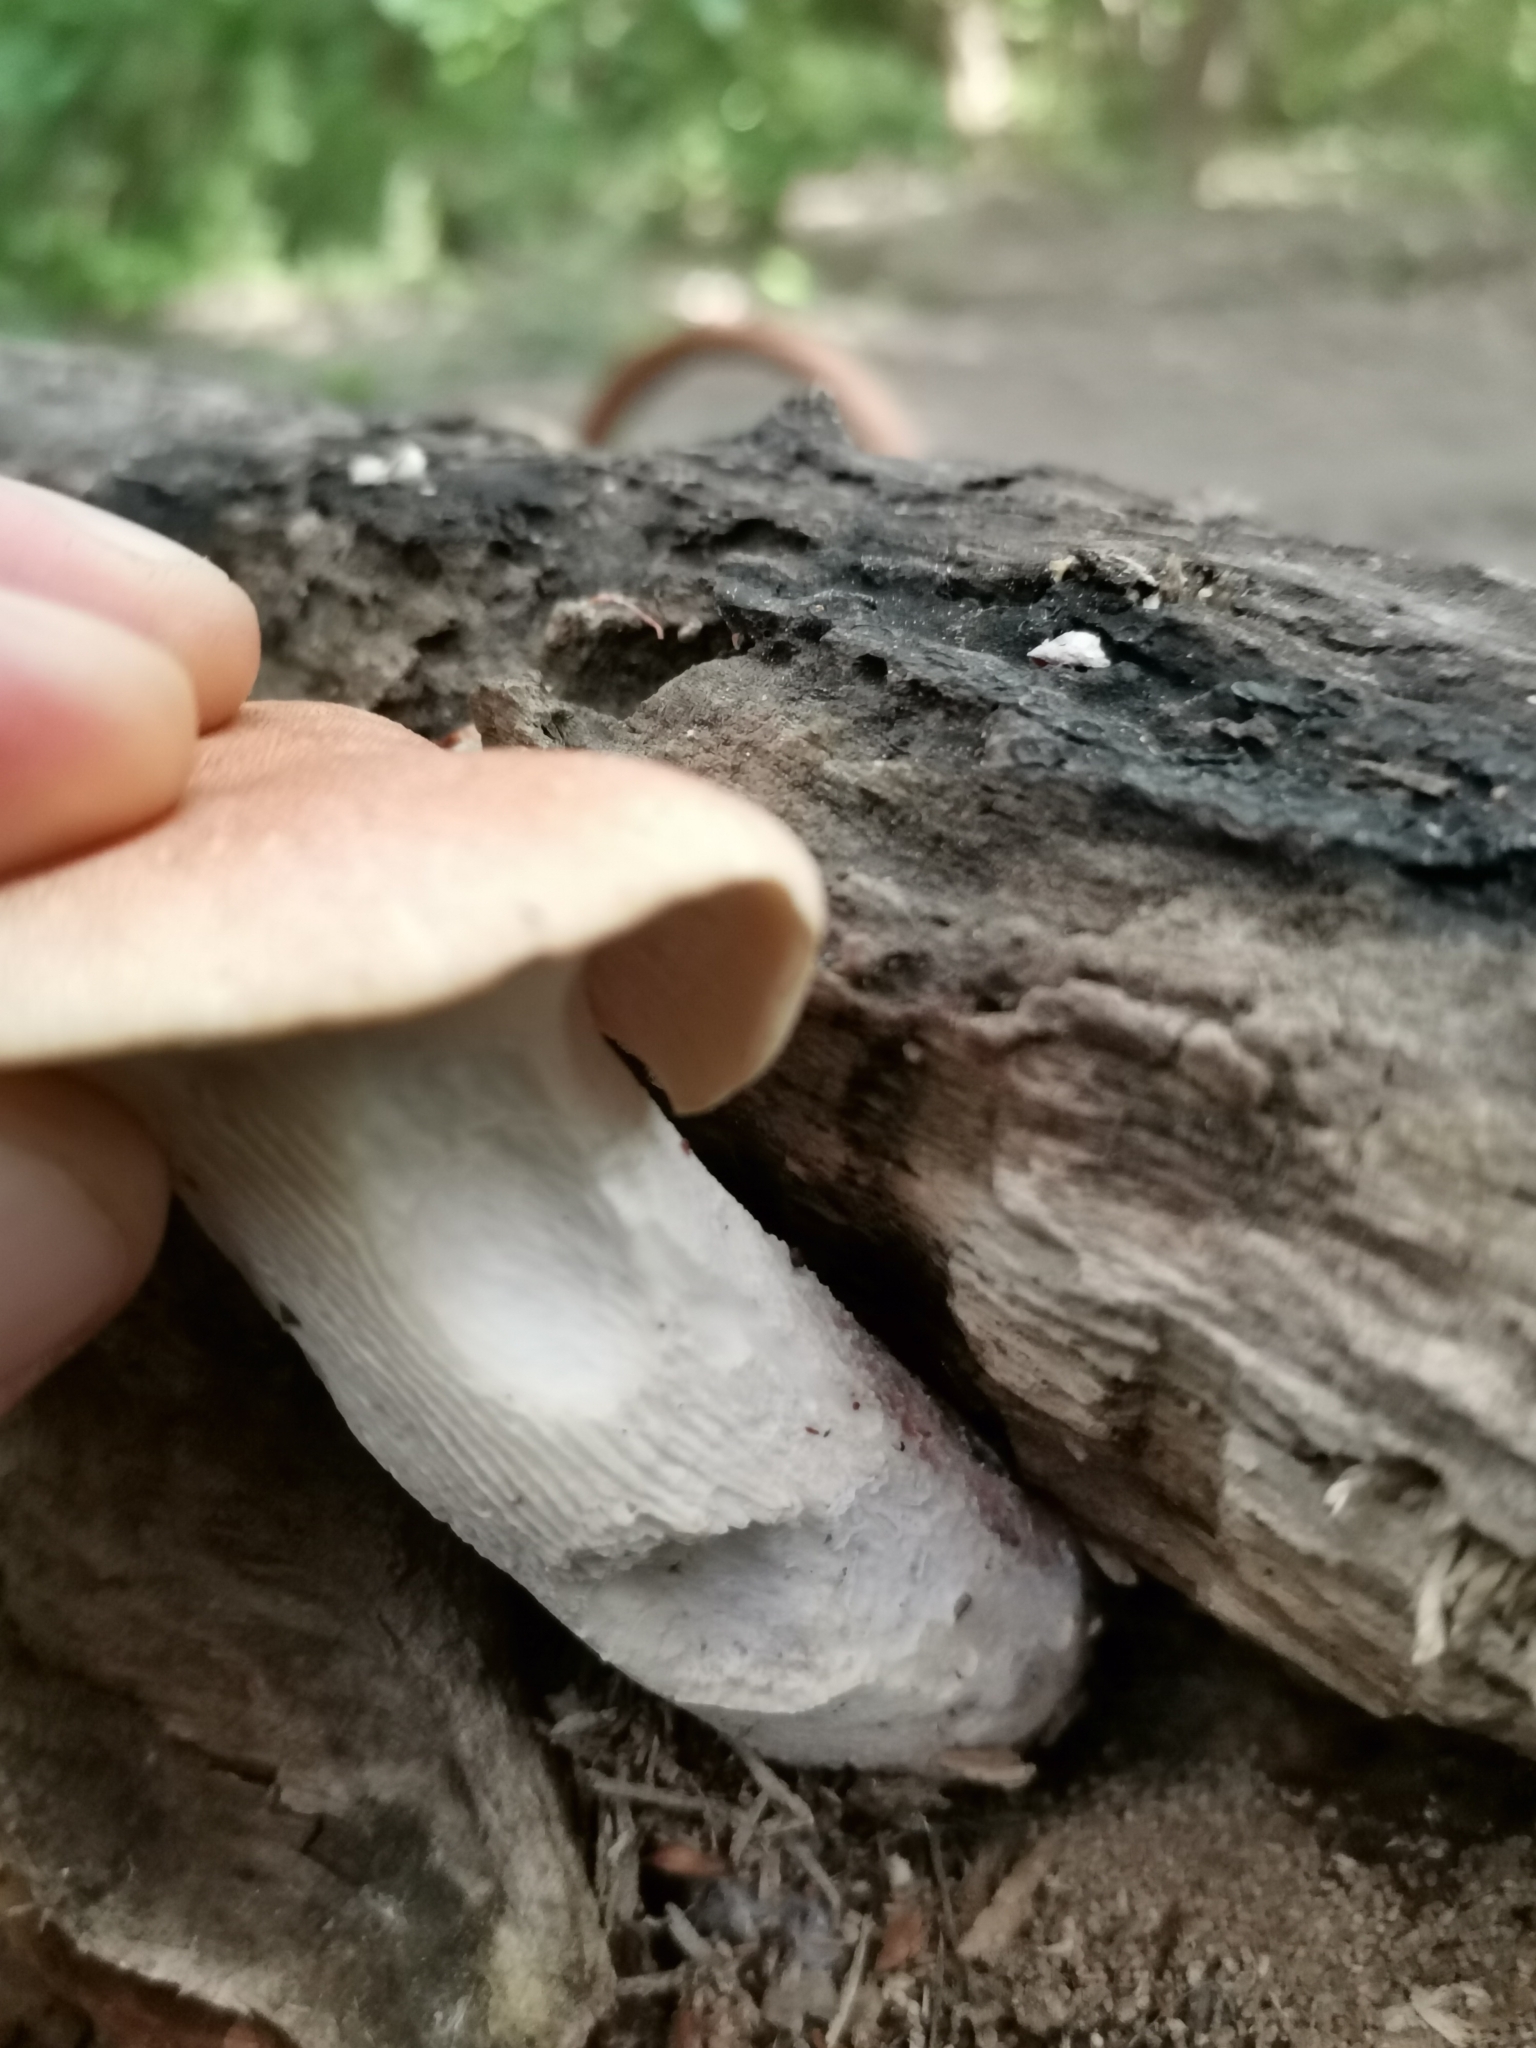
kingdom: Fungi
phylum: Basidiomycota
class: Agaricomycetes
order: Gloeophyllales
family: Gloeophyllaceae
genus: Neolentinus
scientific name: Neolentinus cyathiformis
